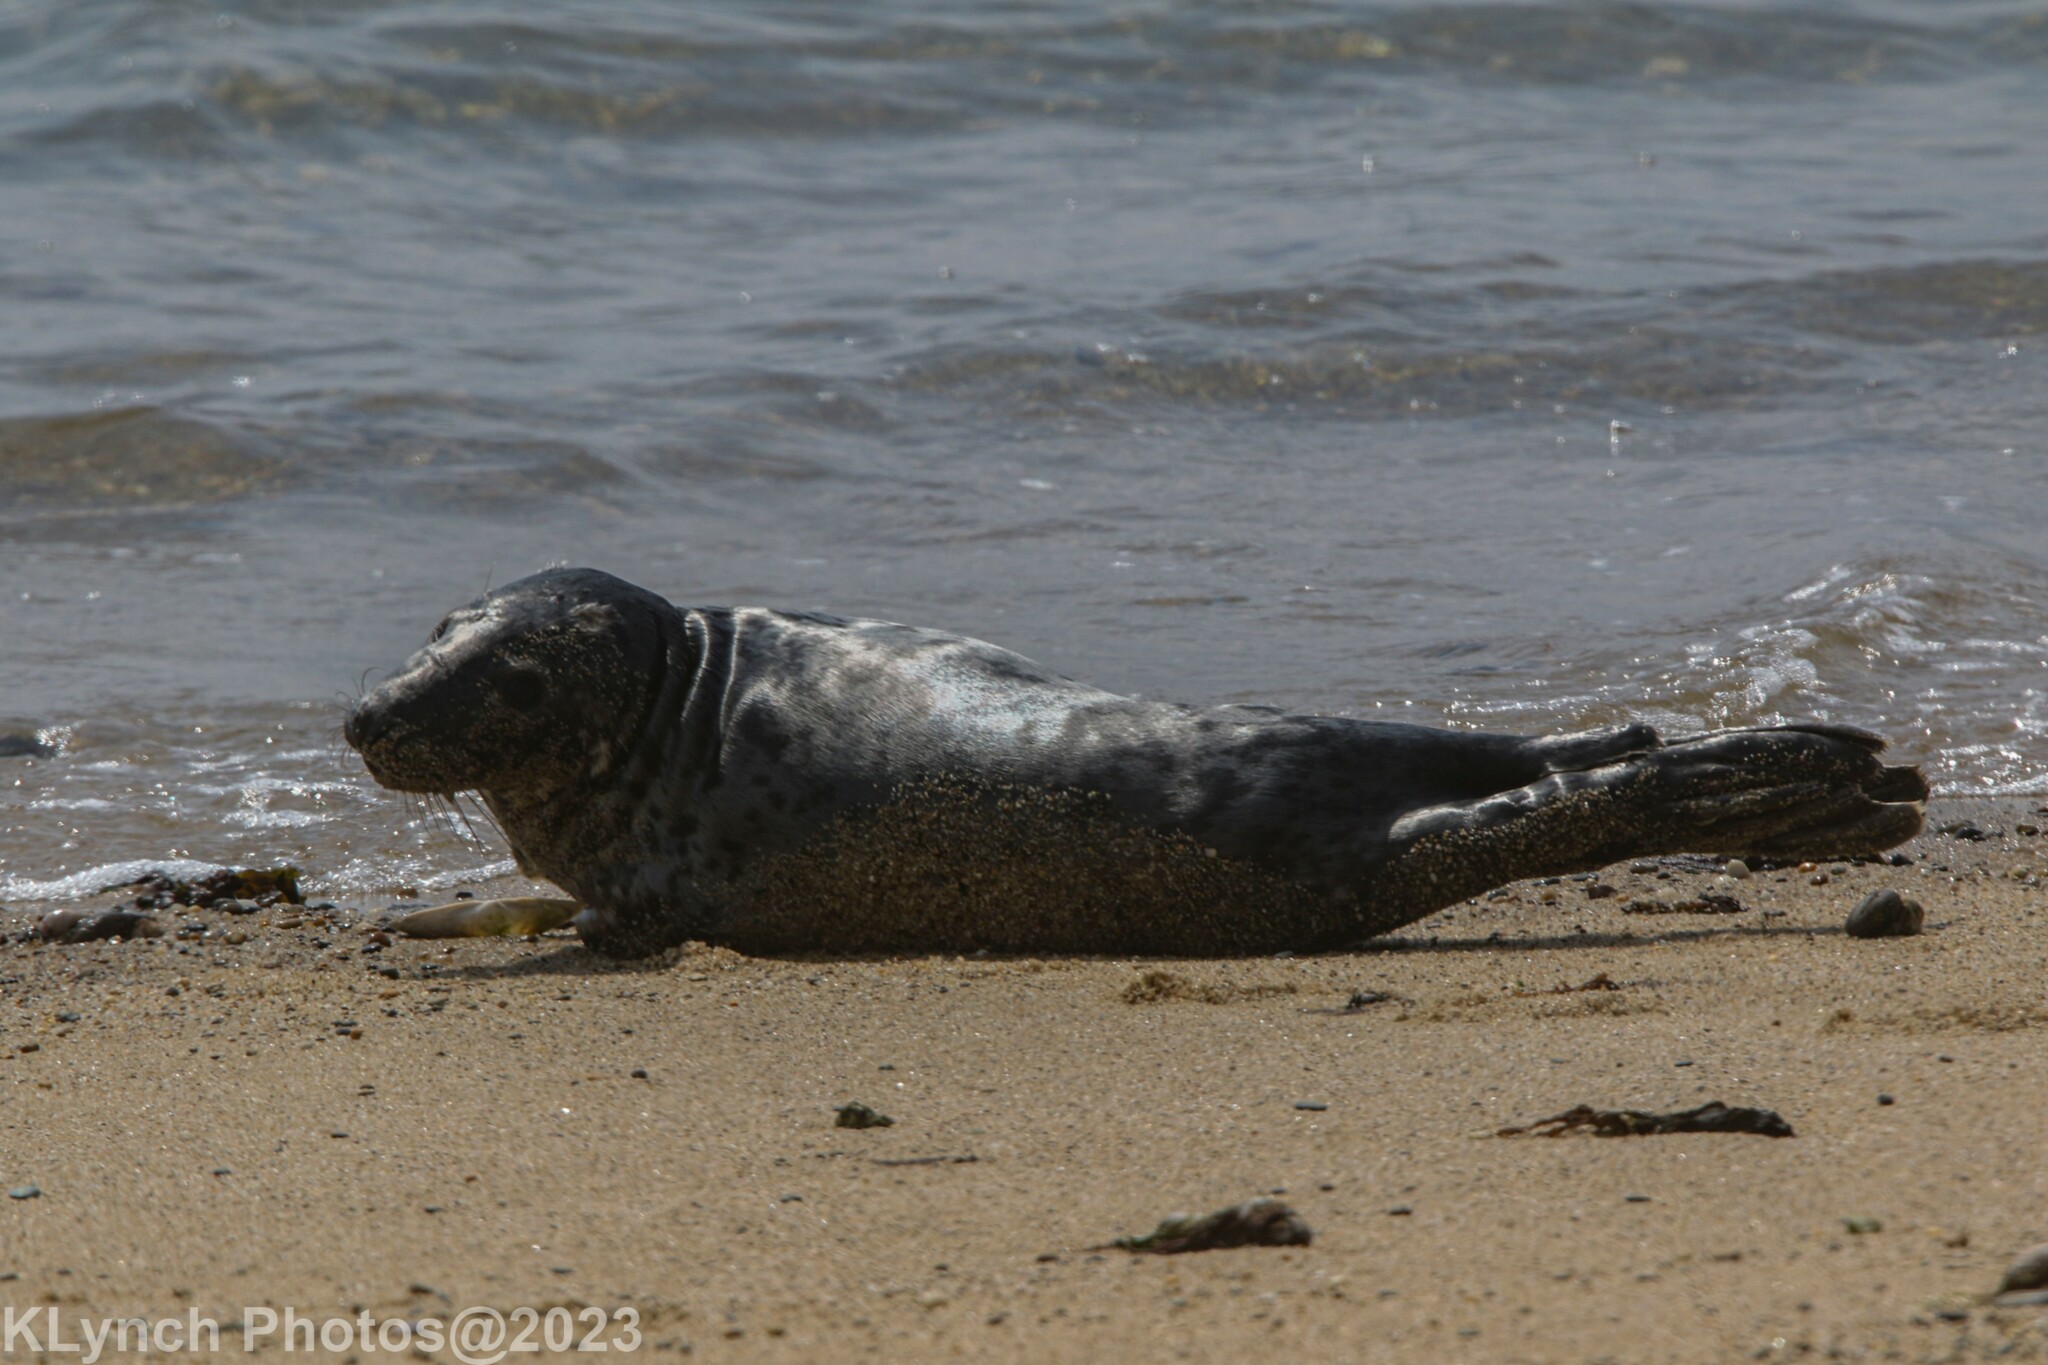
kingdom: Animalia
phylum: Chordata
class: Mammalia
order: Carnivora
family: Phocidae
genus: Halichoerus
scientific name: Halichoerus grypus
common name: Grey seal
